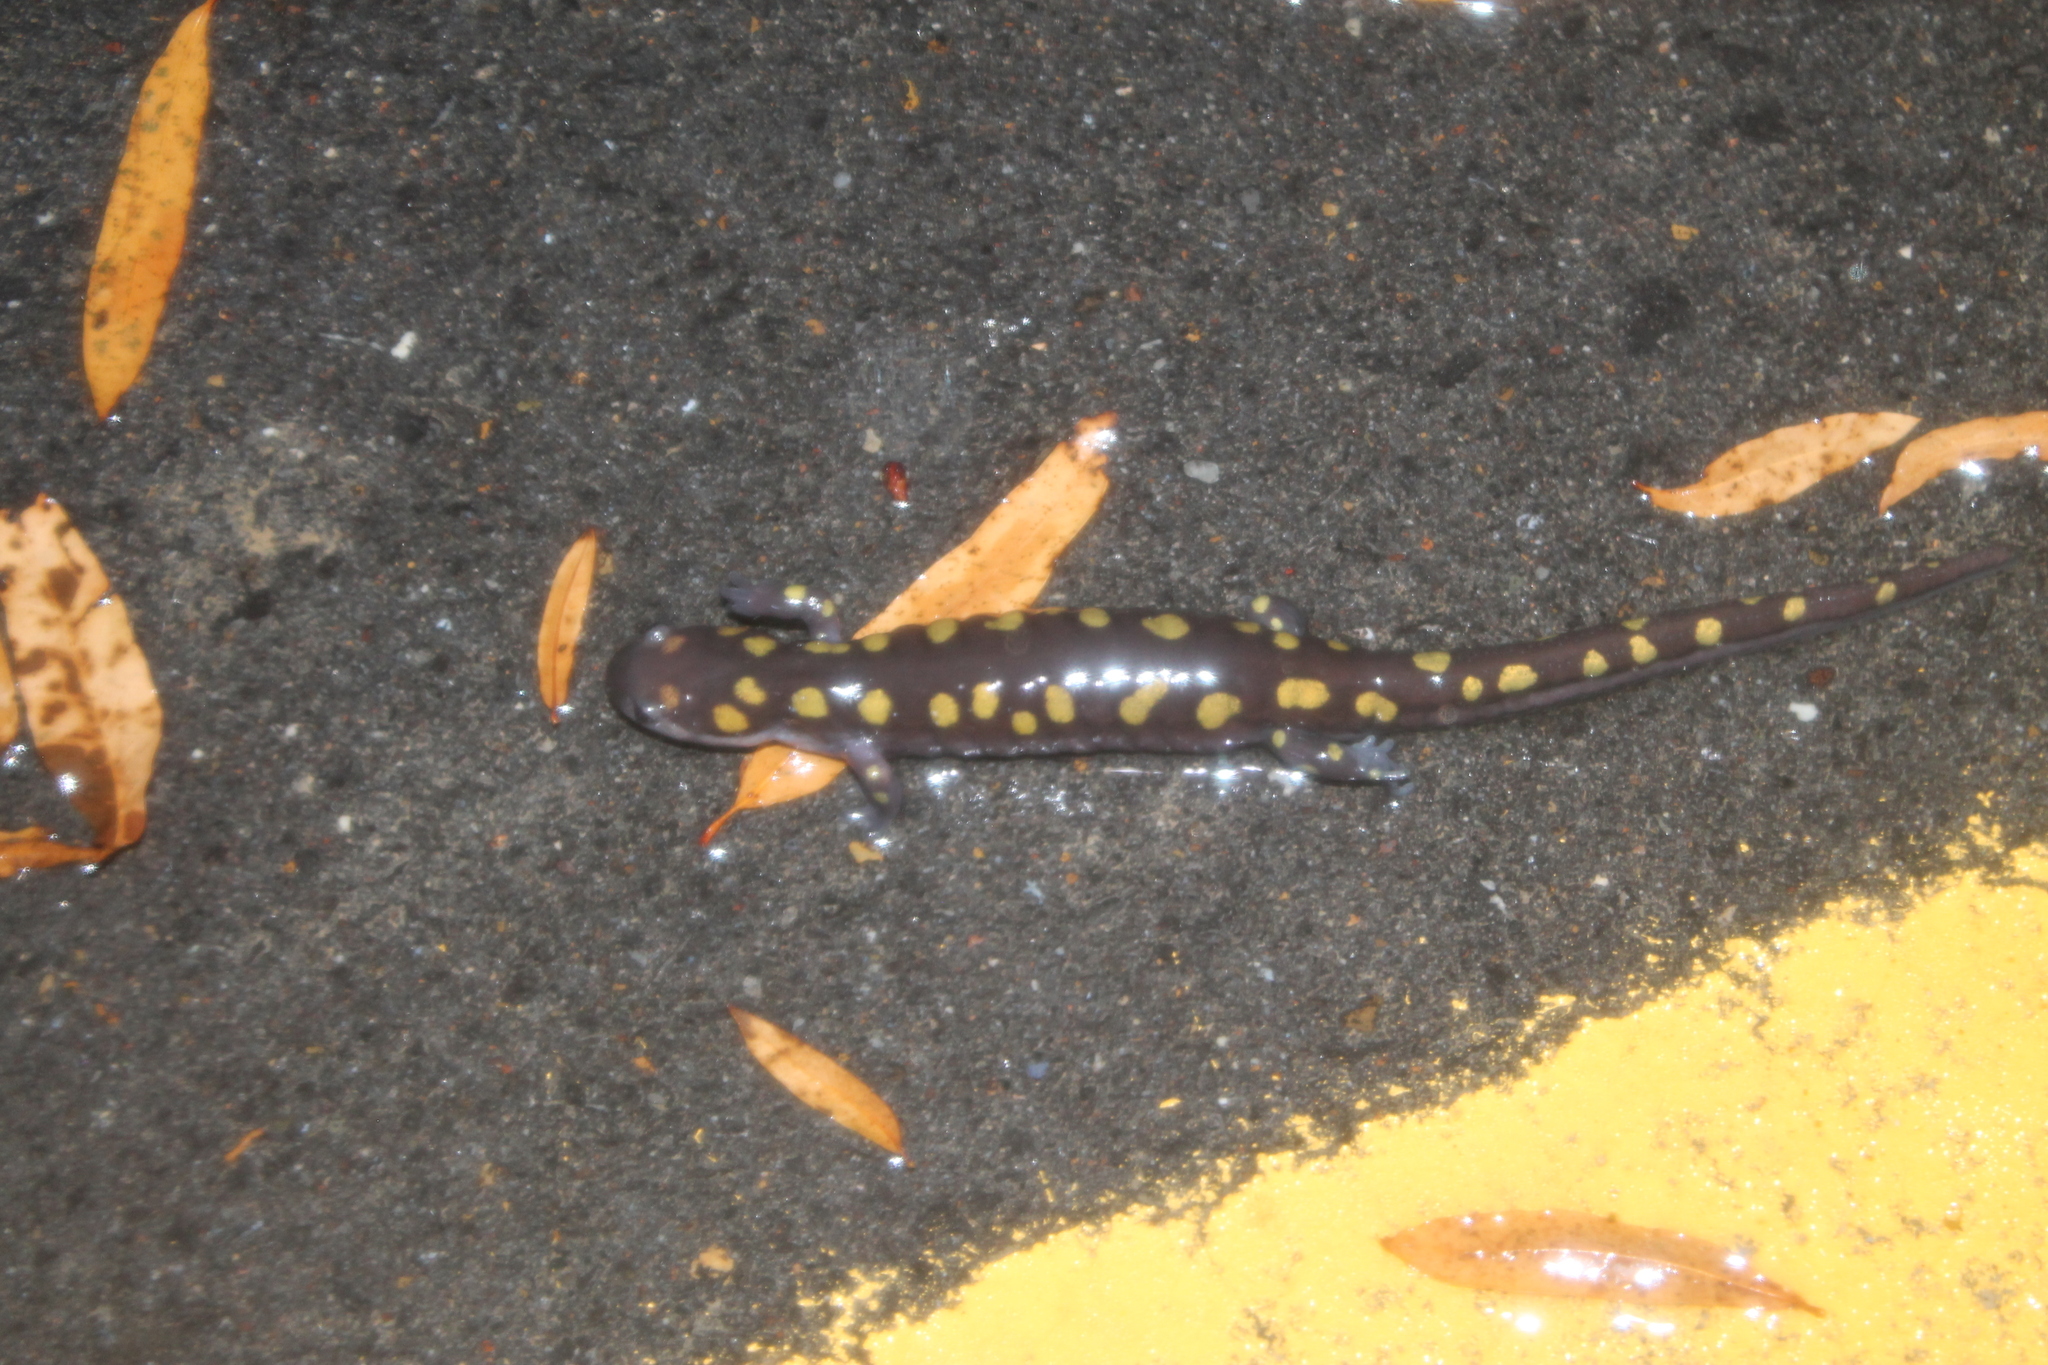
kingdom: Animalia
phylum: Chordata
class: Amphibia
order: Caudata
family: Ambystomatidae
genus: Ambystoma
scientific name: Ambystoma maculatum
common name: Spotted salamander
